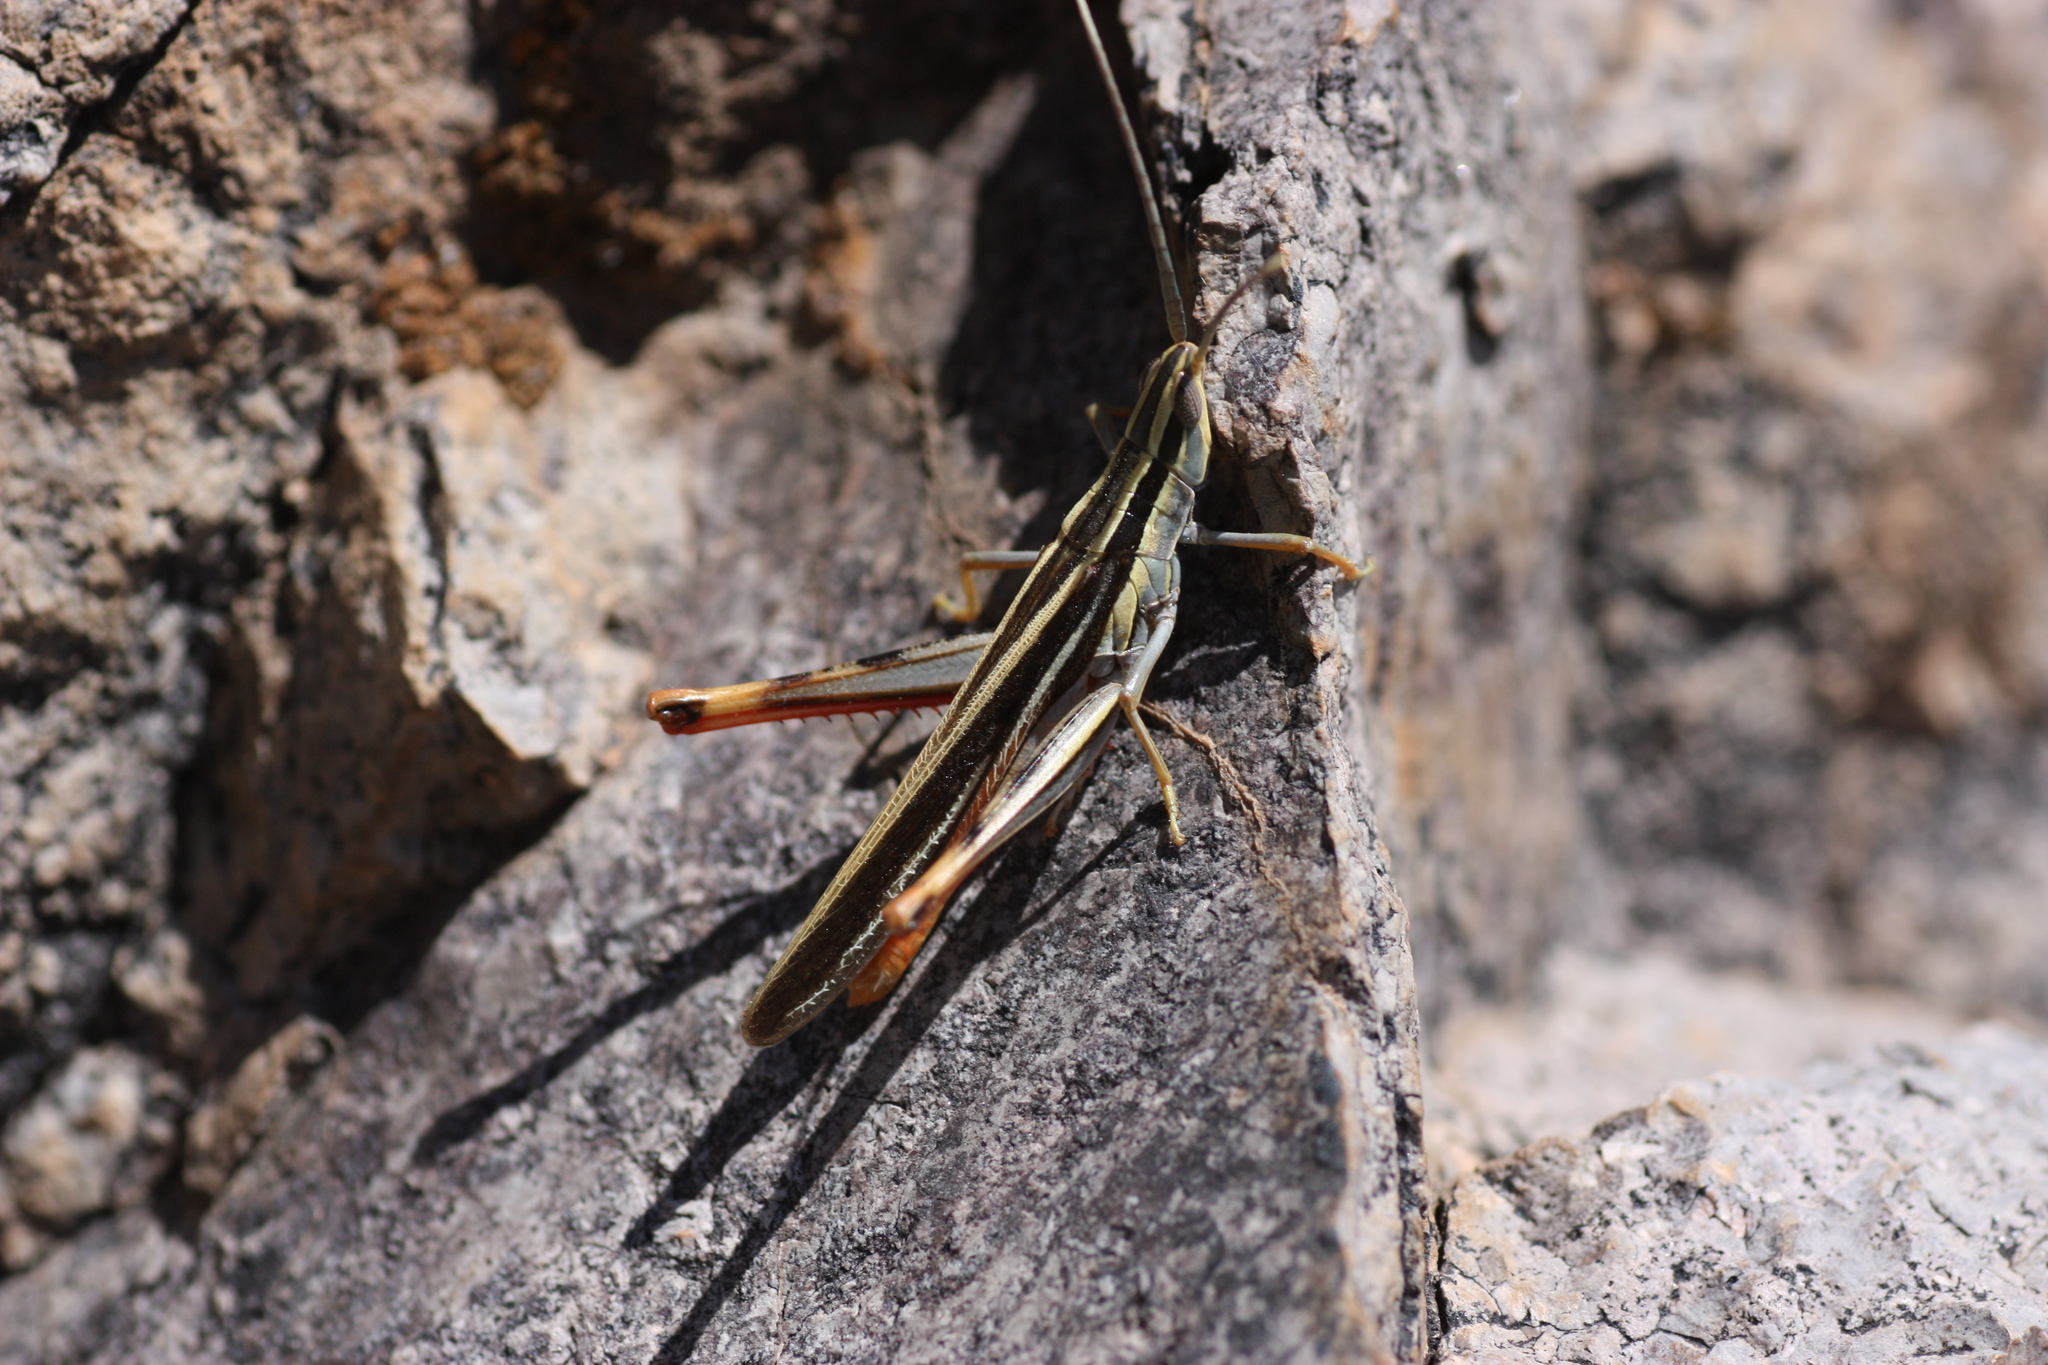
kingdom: Animalia
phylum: Arthropoda
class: Insecta
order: Orthoptera
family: Acrididae
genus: Mermiria
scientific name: Mermiria texana
